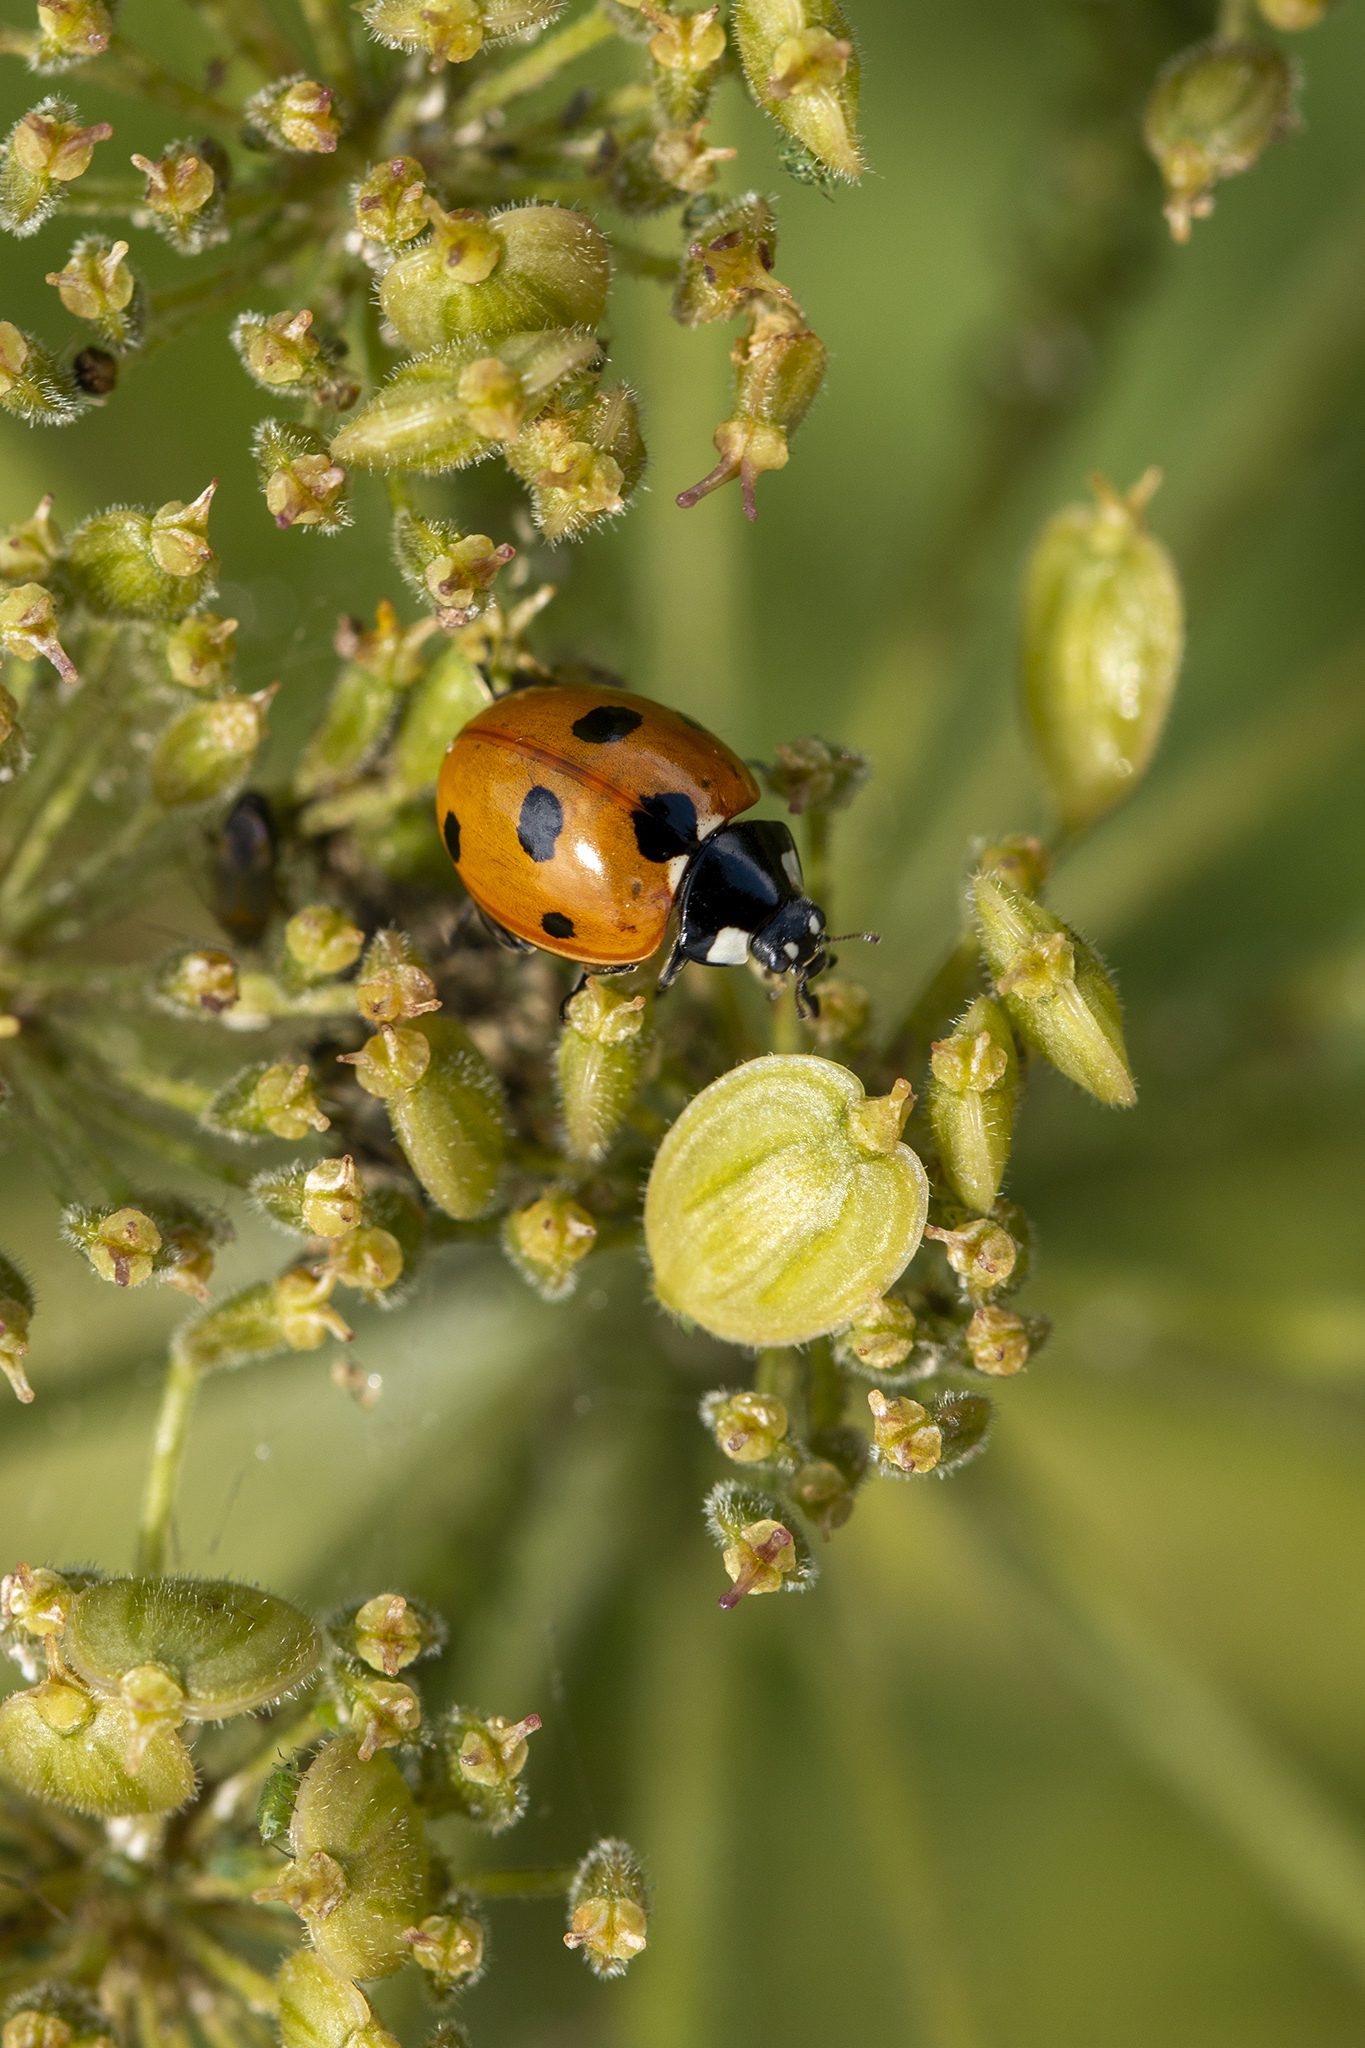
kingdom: Animalia
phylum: Arthropoda
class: Insecta
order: Coleoptera
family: Coccinellidae
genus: Coccinella
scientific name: Coccinella septempunctata
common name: Sevenspotted lady beetle
